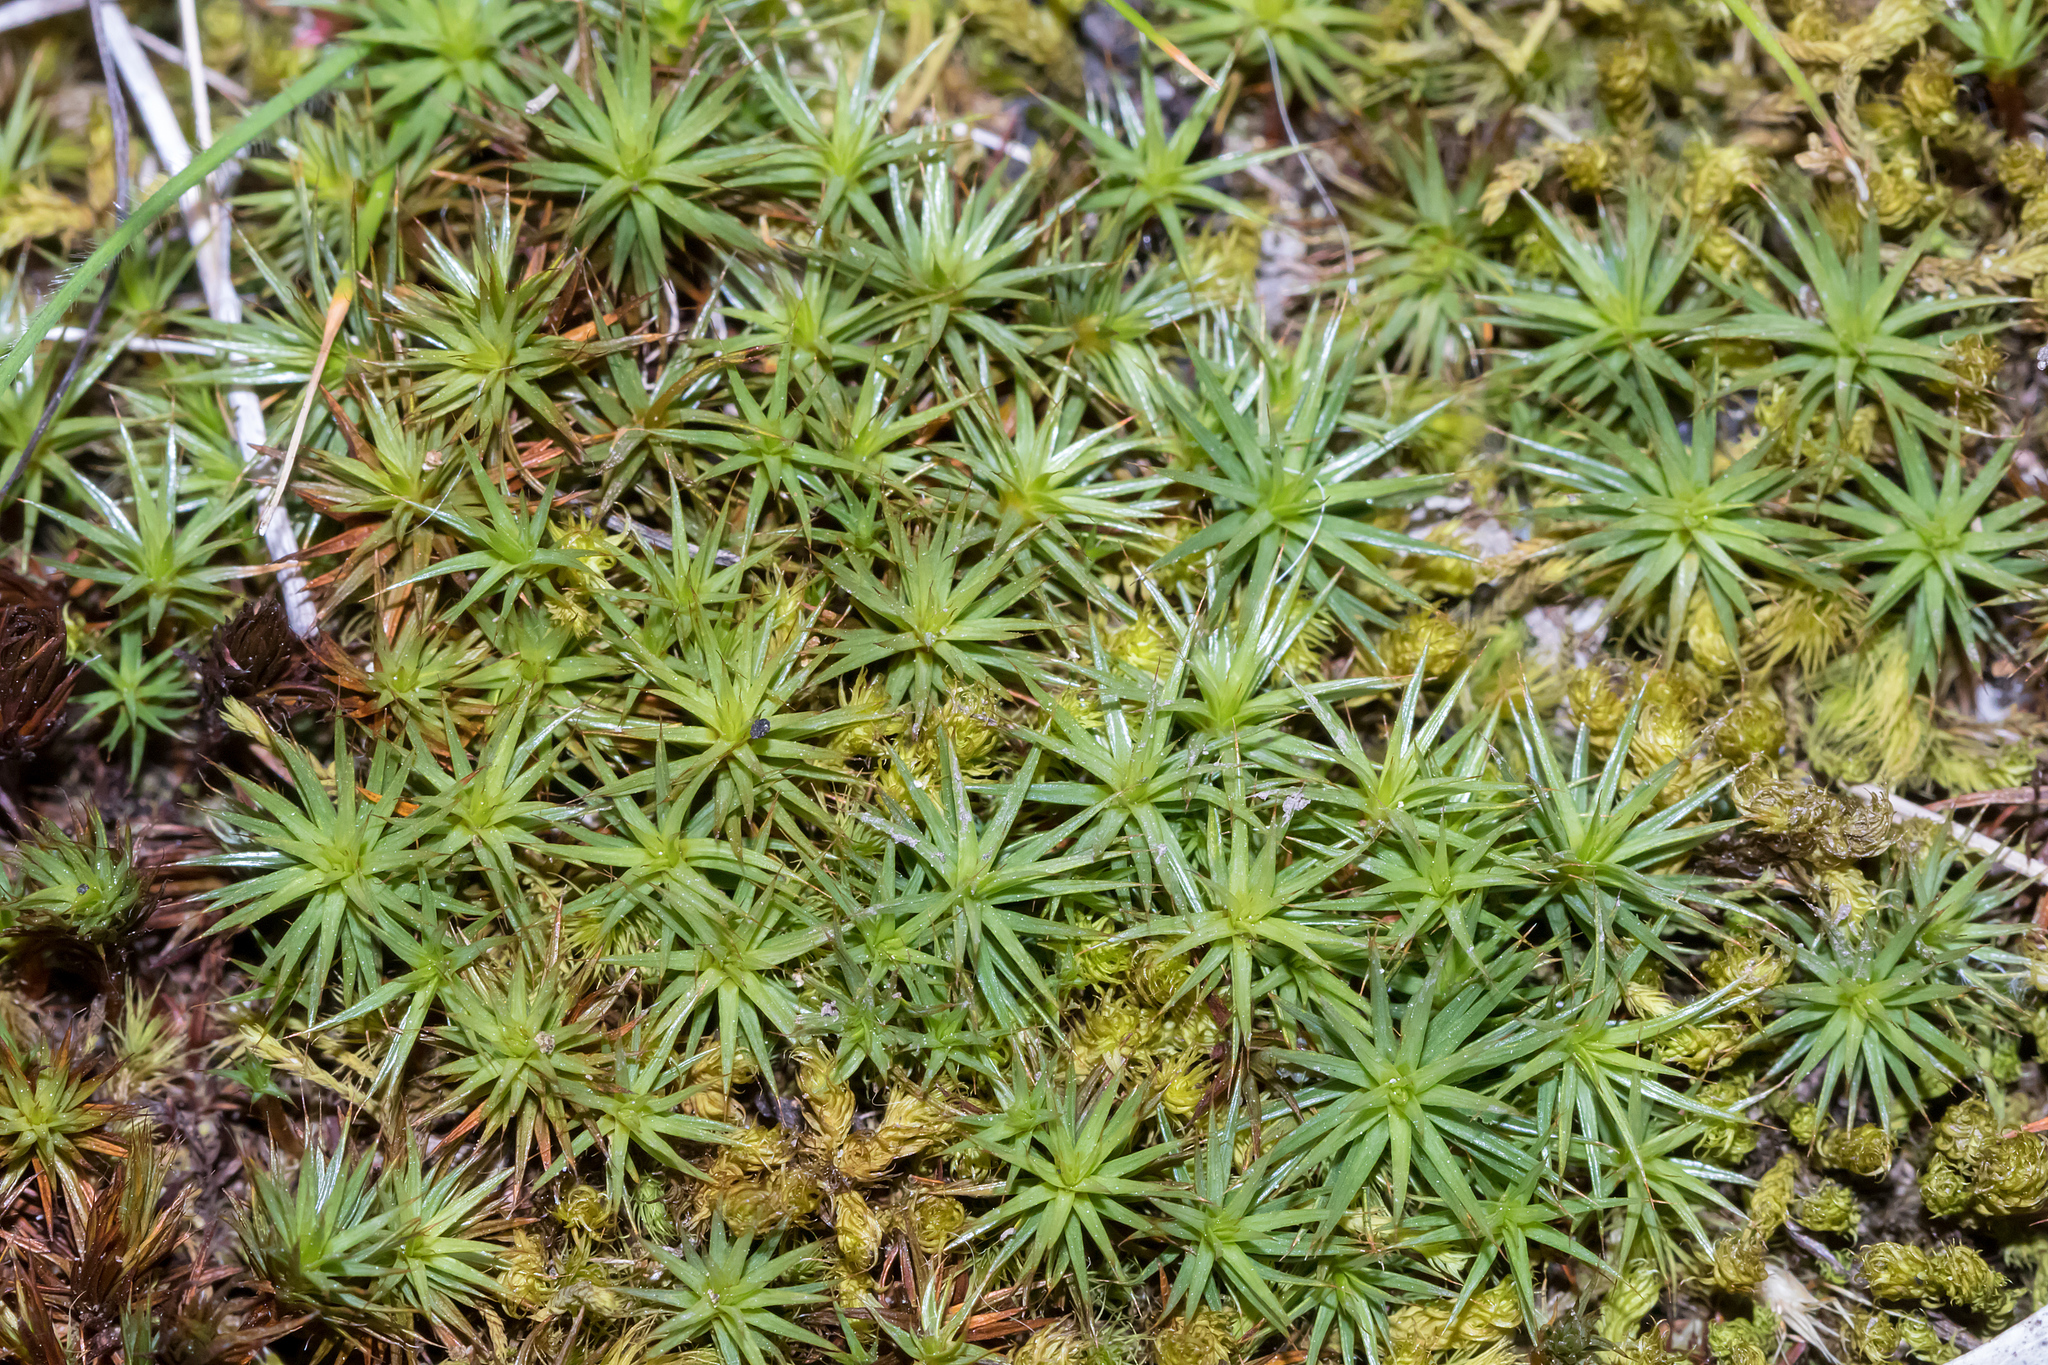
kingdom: Plantae
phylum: Bryophyta
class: Polytrichopsida
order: Polytrichales
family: Polytrichaceae
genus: Polytrichum
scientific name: Polytrichum juniperinum
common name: Juniper haircap moss
